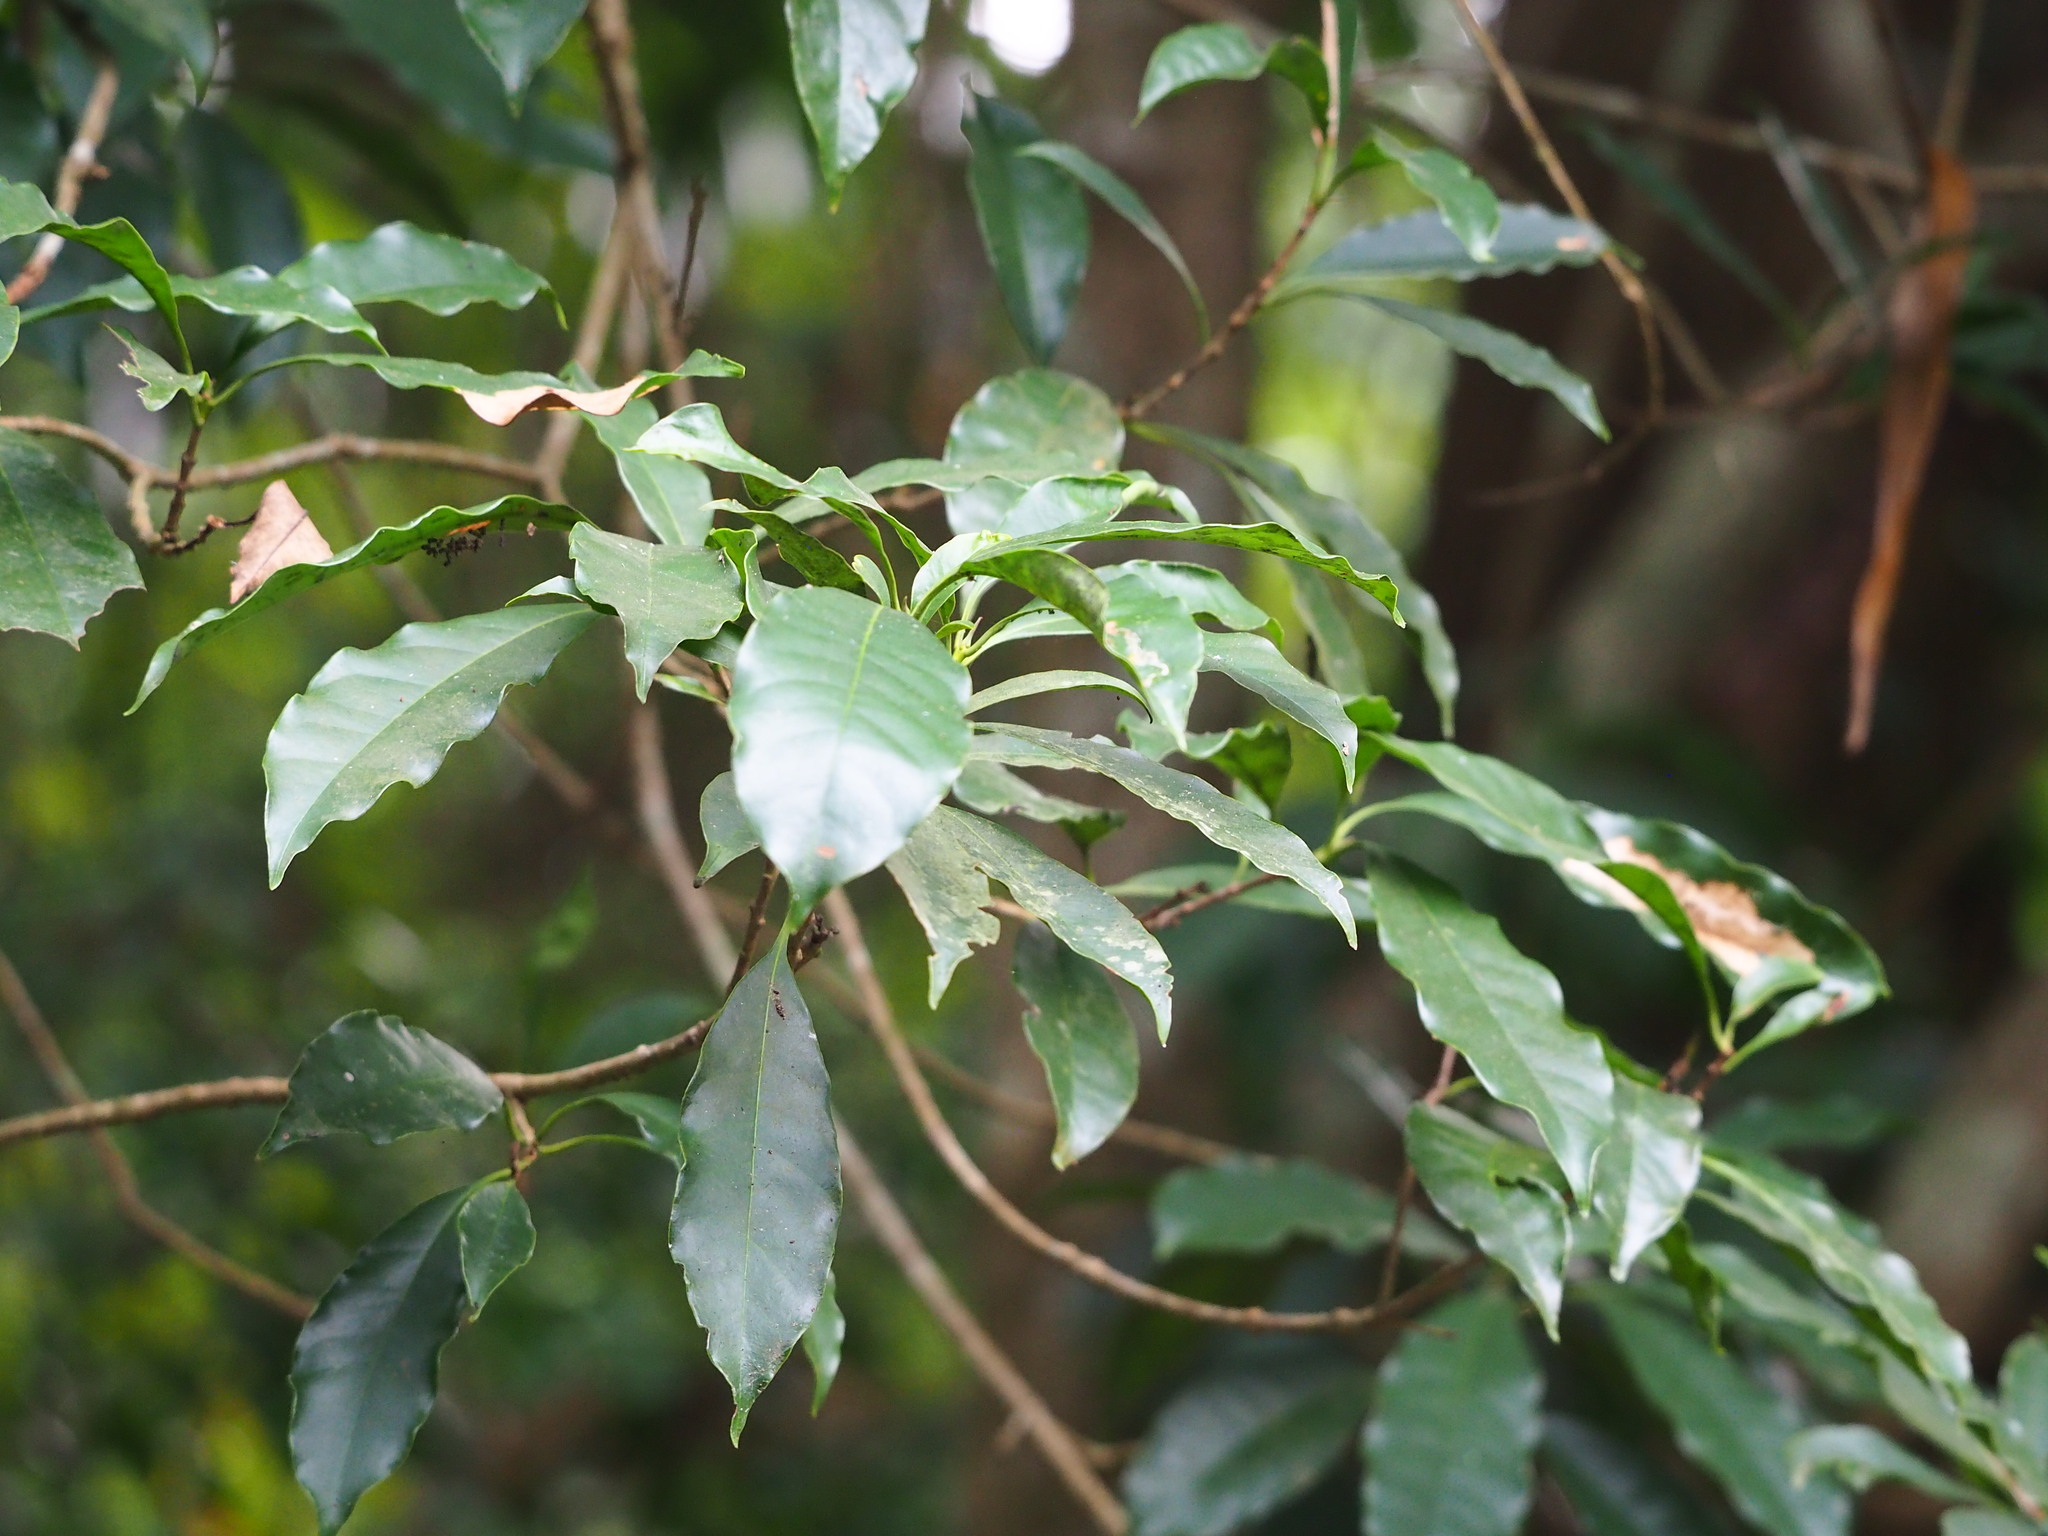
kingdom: Plantae
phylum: Tracheophyta
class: Magnoliopsida
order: Lamiales
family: Oleaceae
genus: Chengiodendron
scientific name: Chengiodendron matsumuranum
